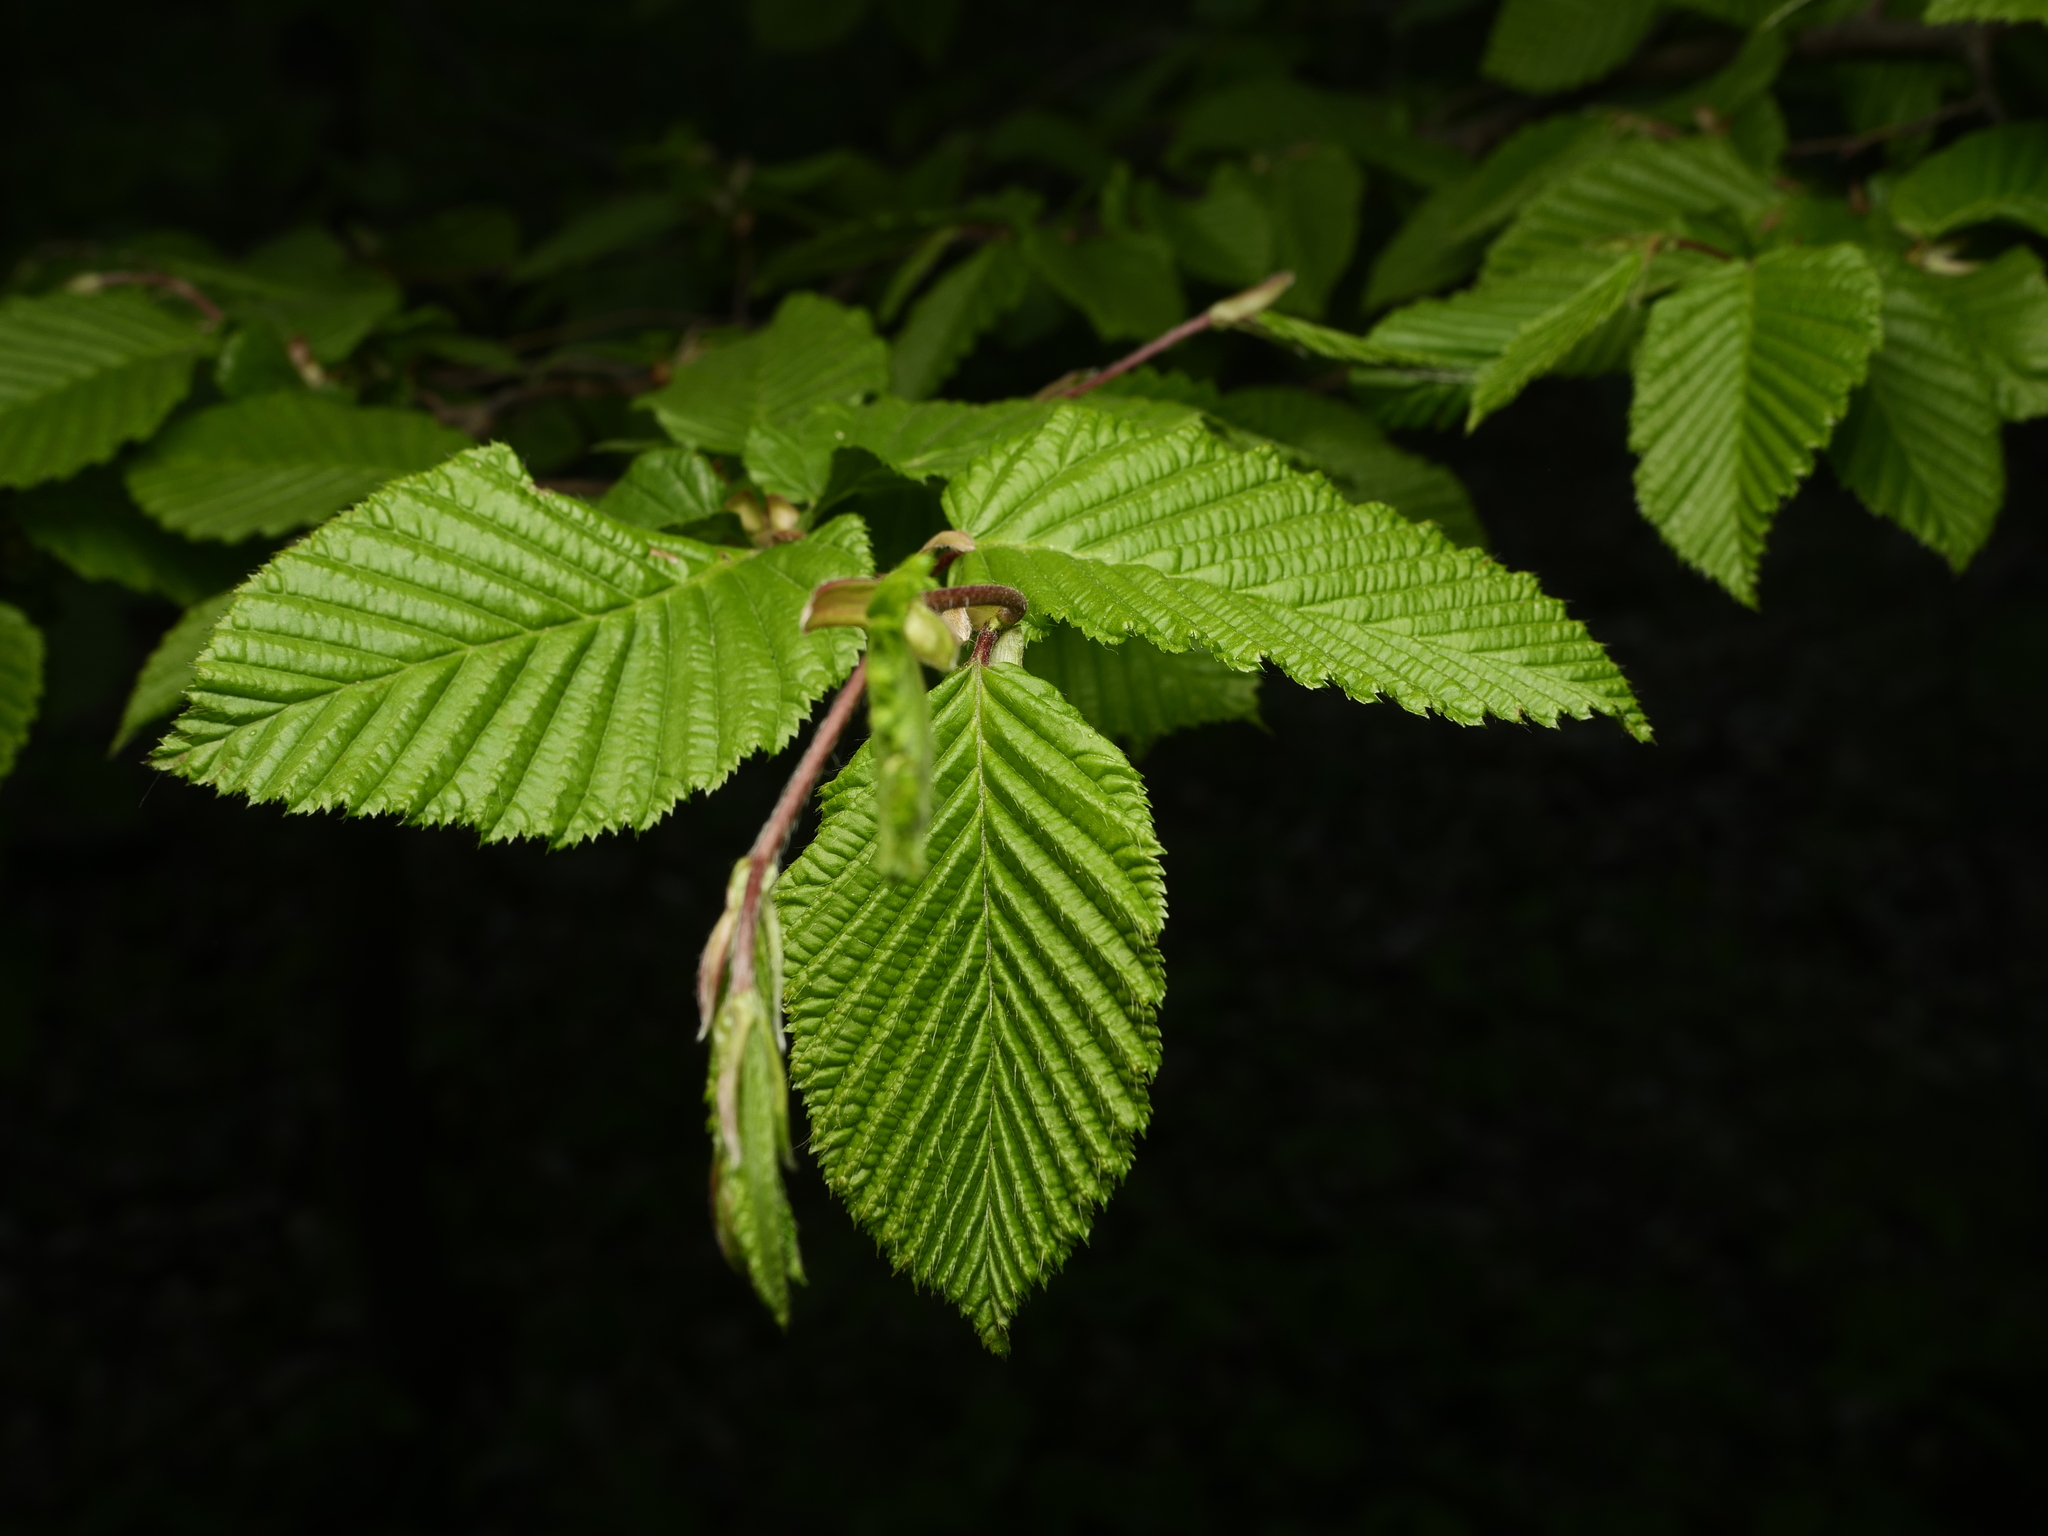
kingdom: Plantae
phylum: Tracheophyta
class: Magnoliopsida
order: Fagales
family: Betulaceae
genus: Carpinus
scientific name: Carpinus betulus
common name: Hornbeam
